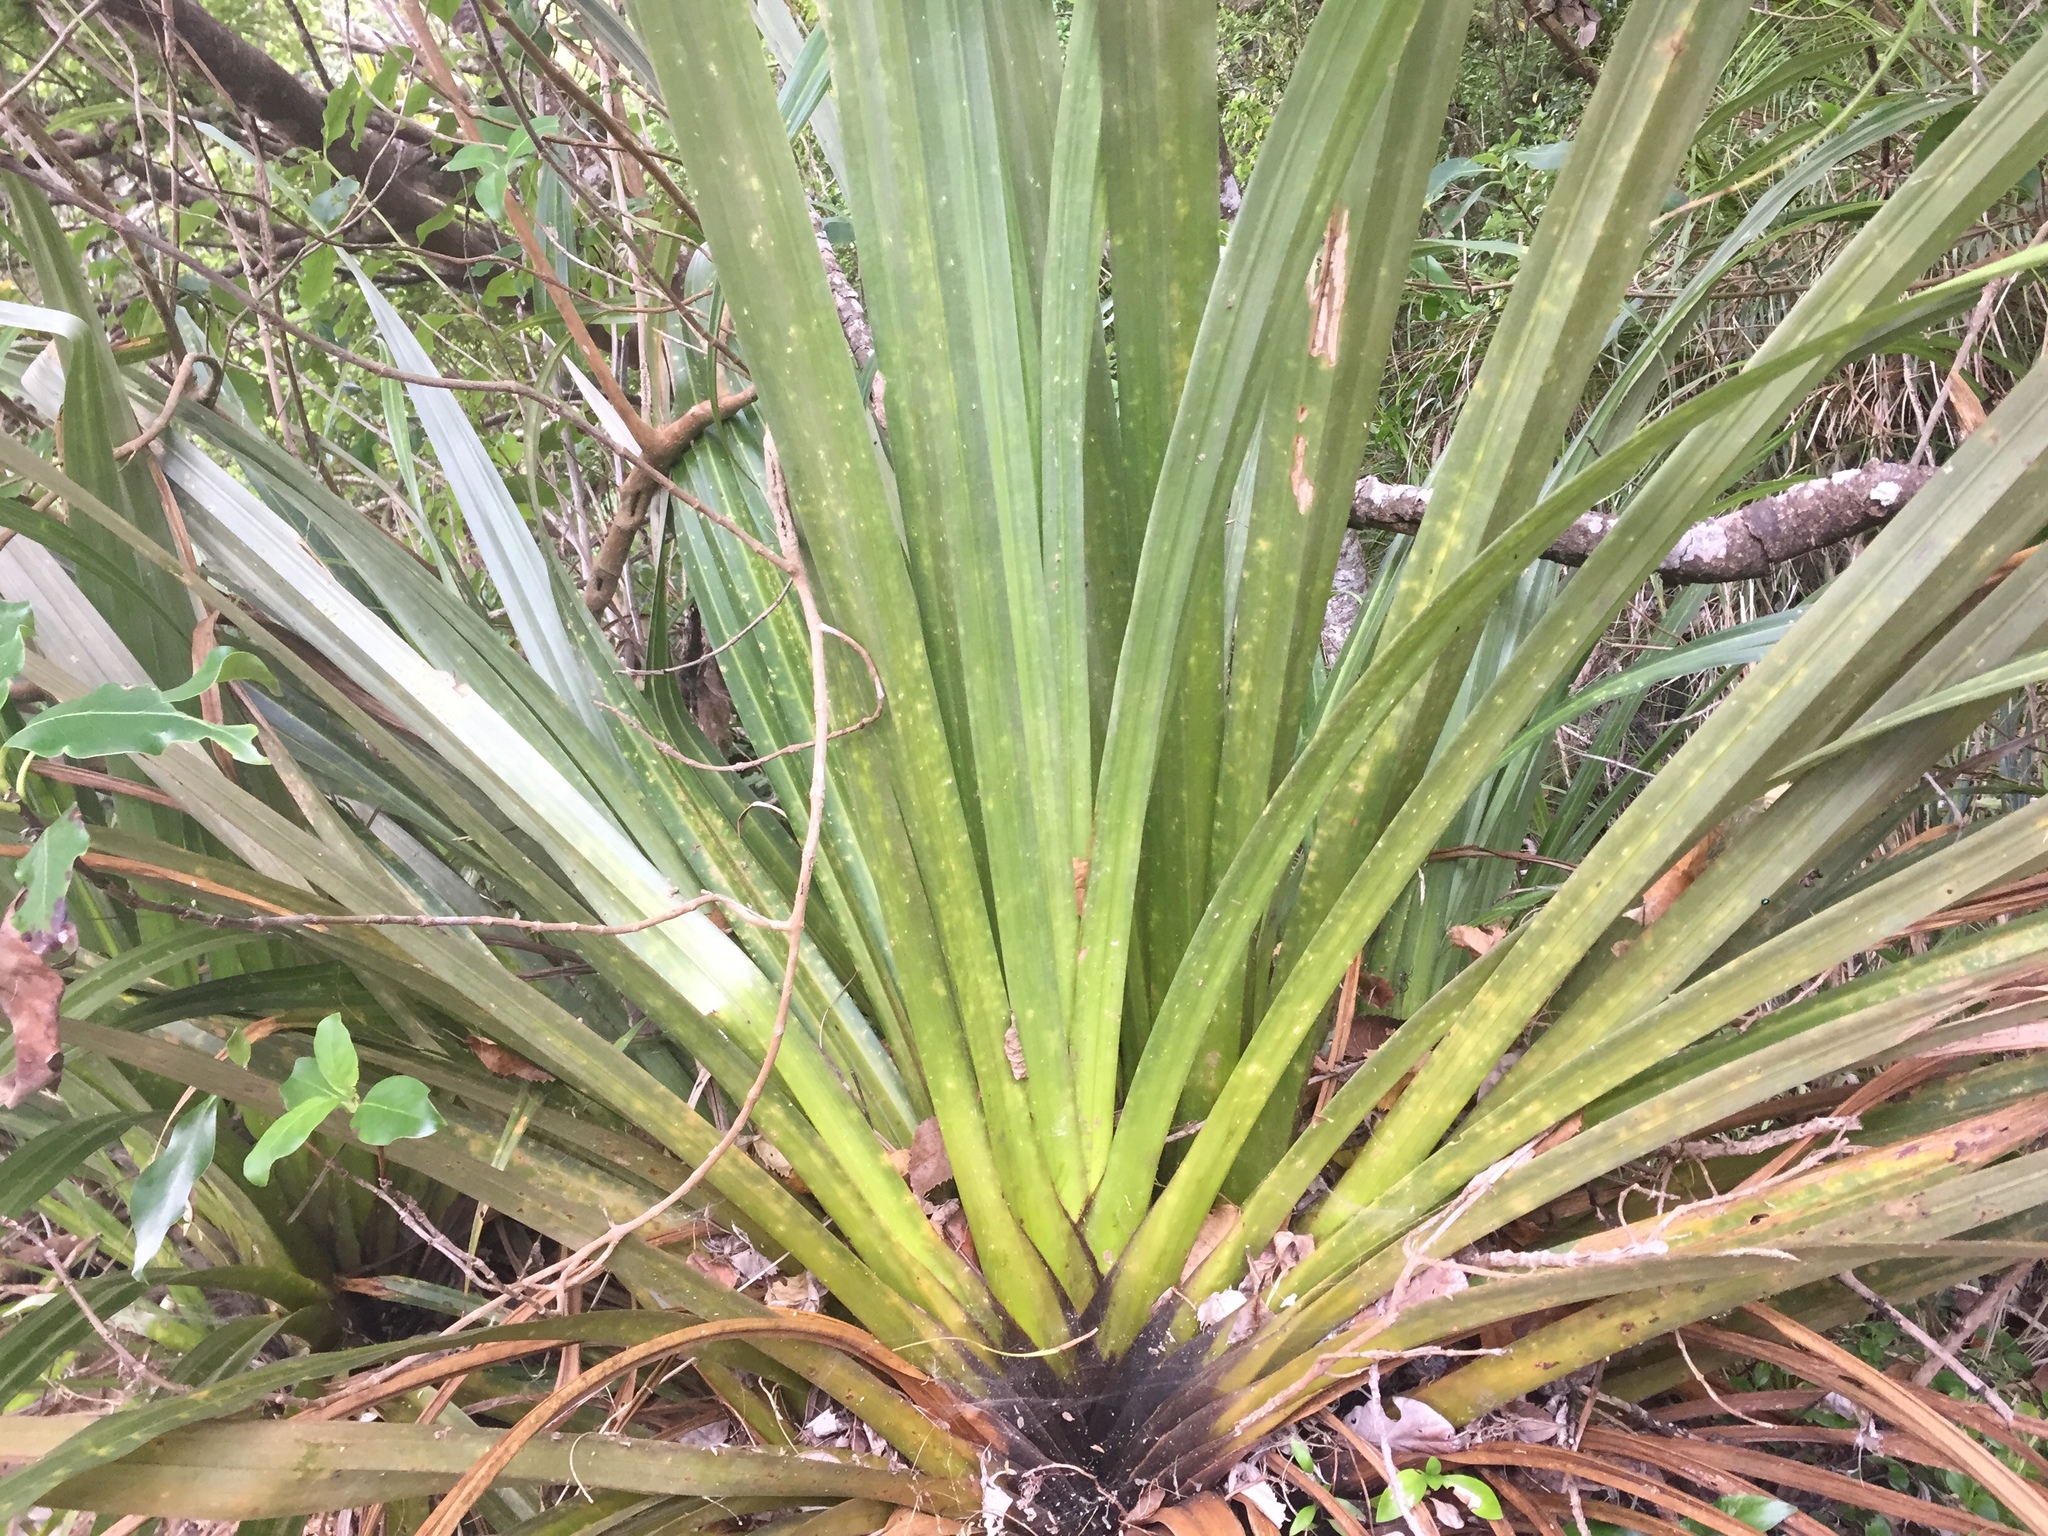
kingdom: Plantae
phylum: Tracheophyta
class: Liliopsida
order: Asparagales
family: Asteliaceae
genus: Astelia
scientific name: Astelia hastata
